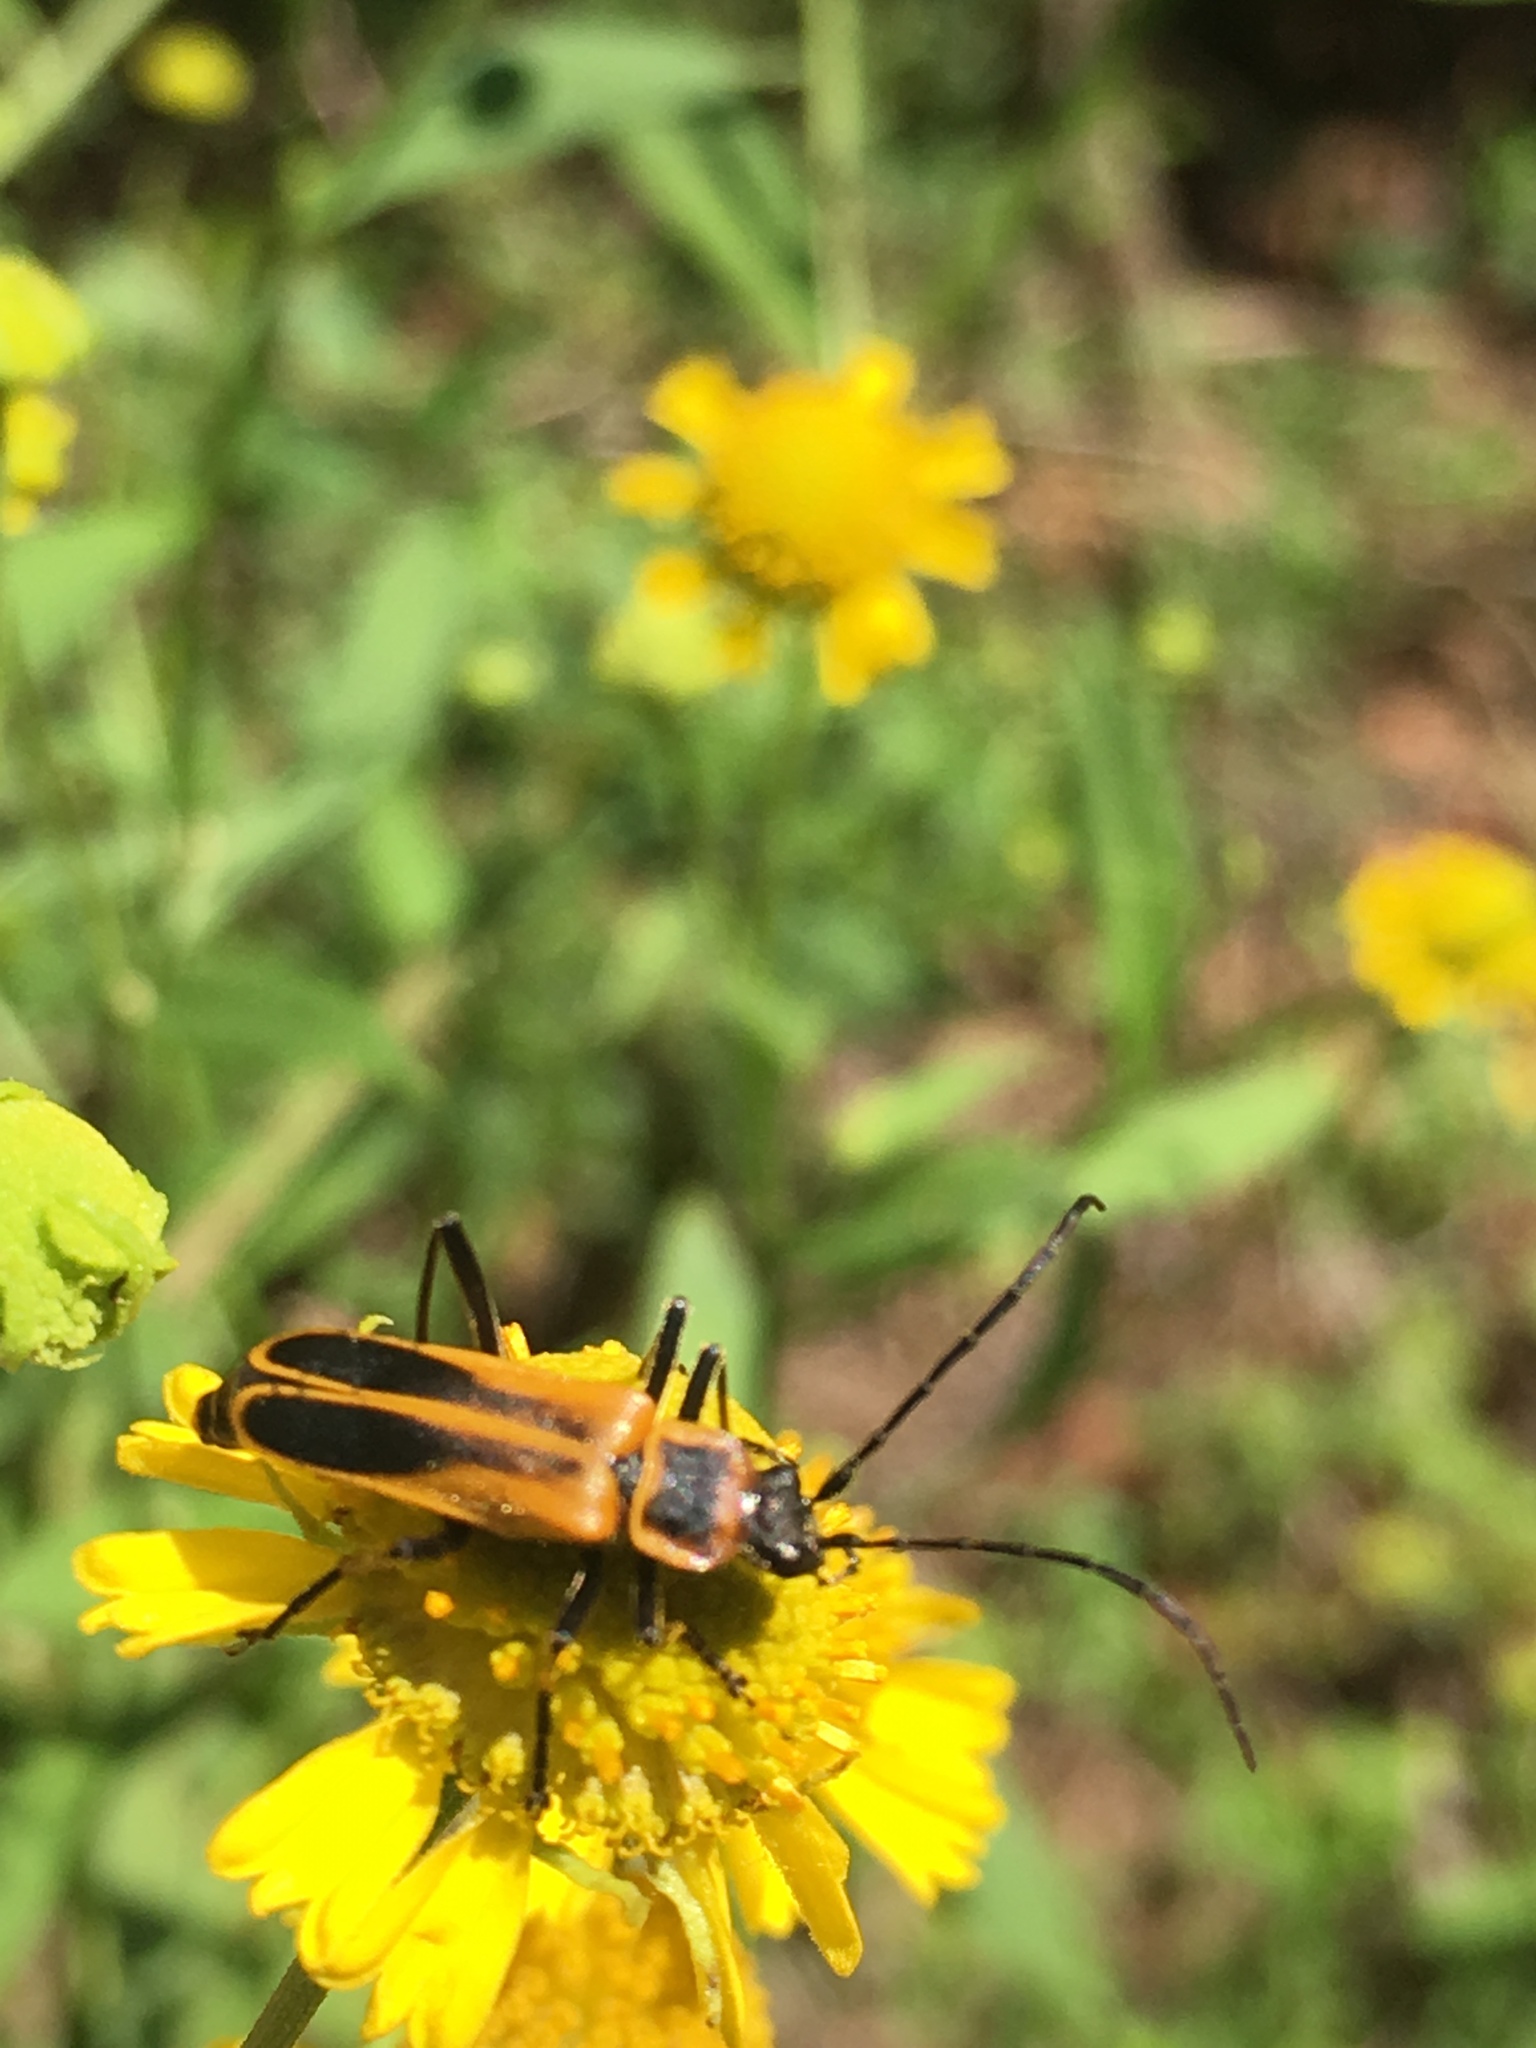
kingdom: Animalia
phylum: Arthropoda
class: Insecta
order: Coleoptera
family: Cantharidae
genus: Chauliognathus
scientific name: Chauliognathus pensylvanicus
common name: Goldenrod soldier beetle
